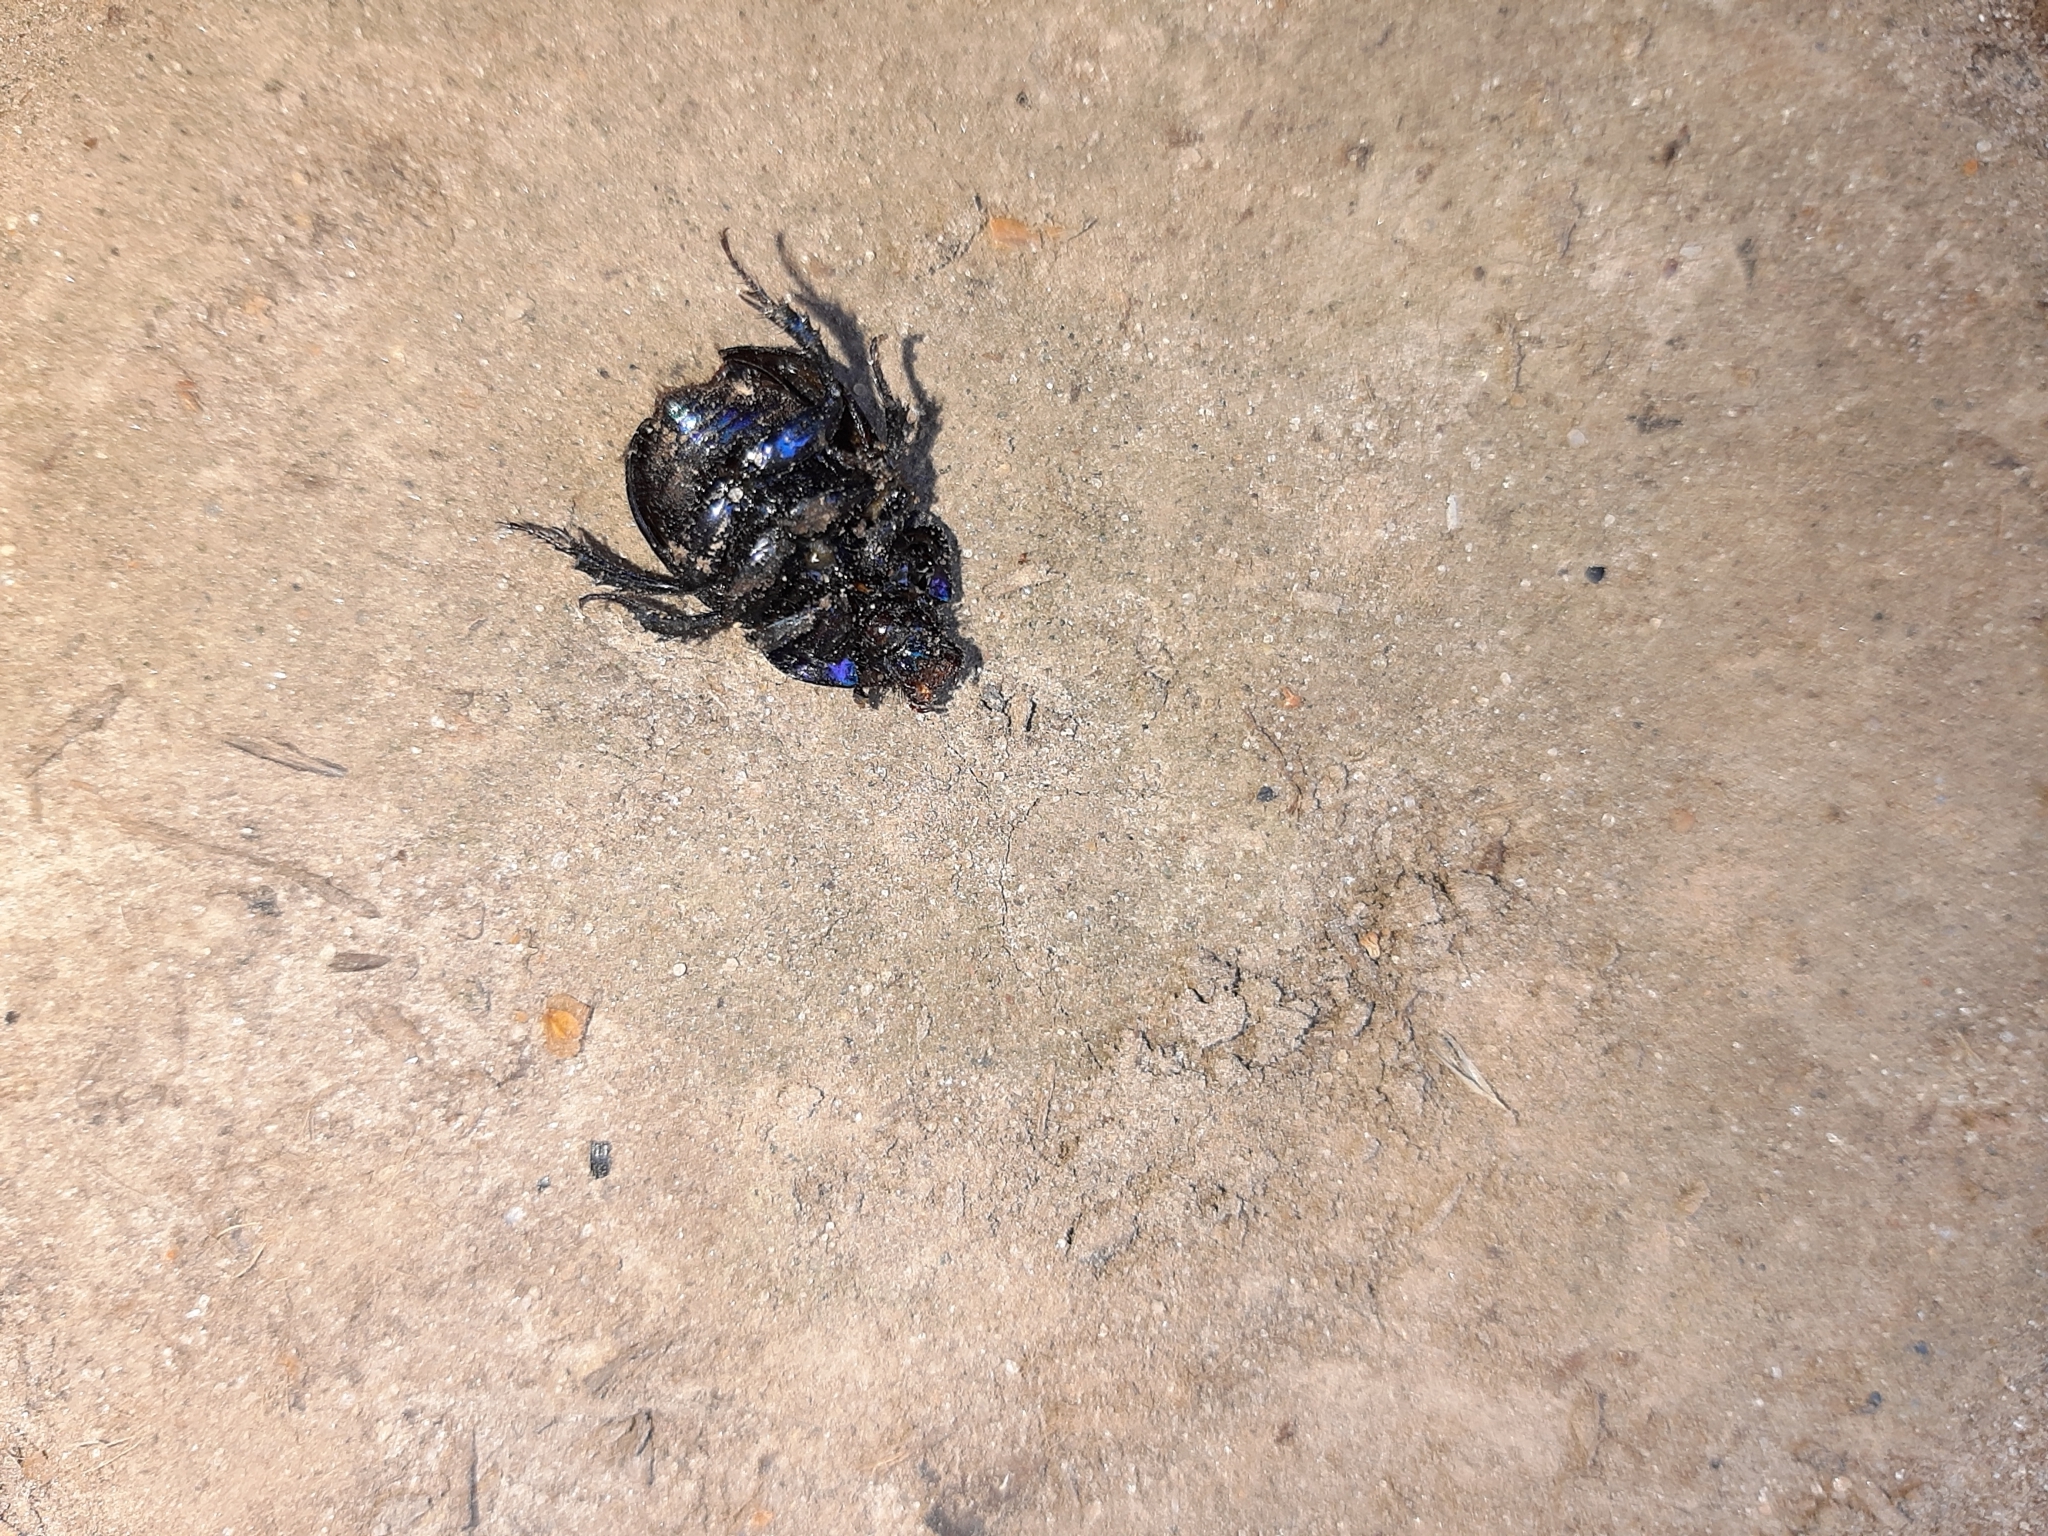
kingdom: Animalia
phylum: Arthropoda
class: Insecta
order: Coleoptera
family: Geotrupidae
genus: Anoplotrupes
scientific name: Anoplotrupes stercorosus
